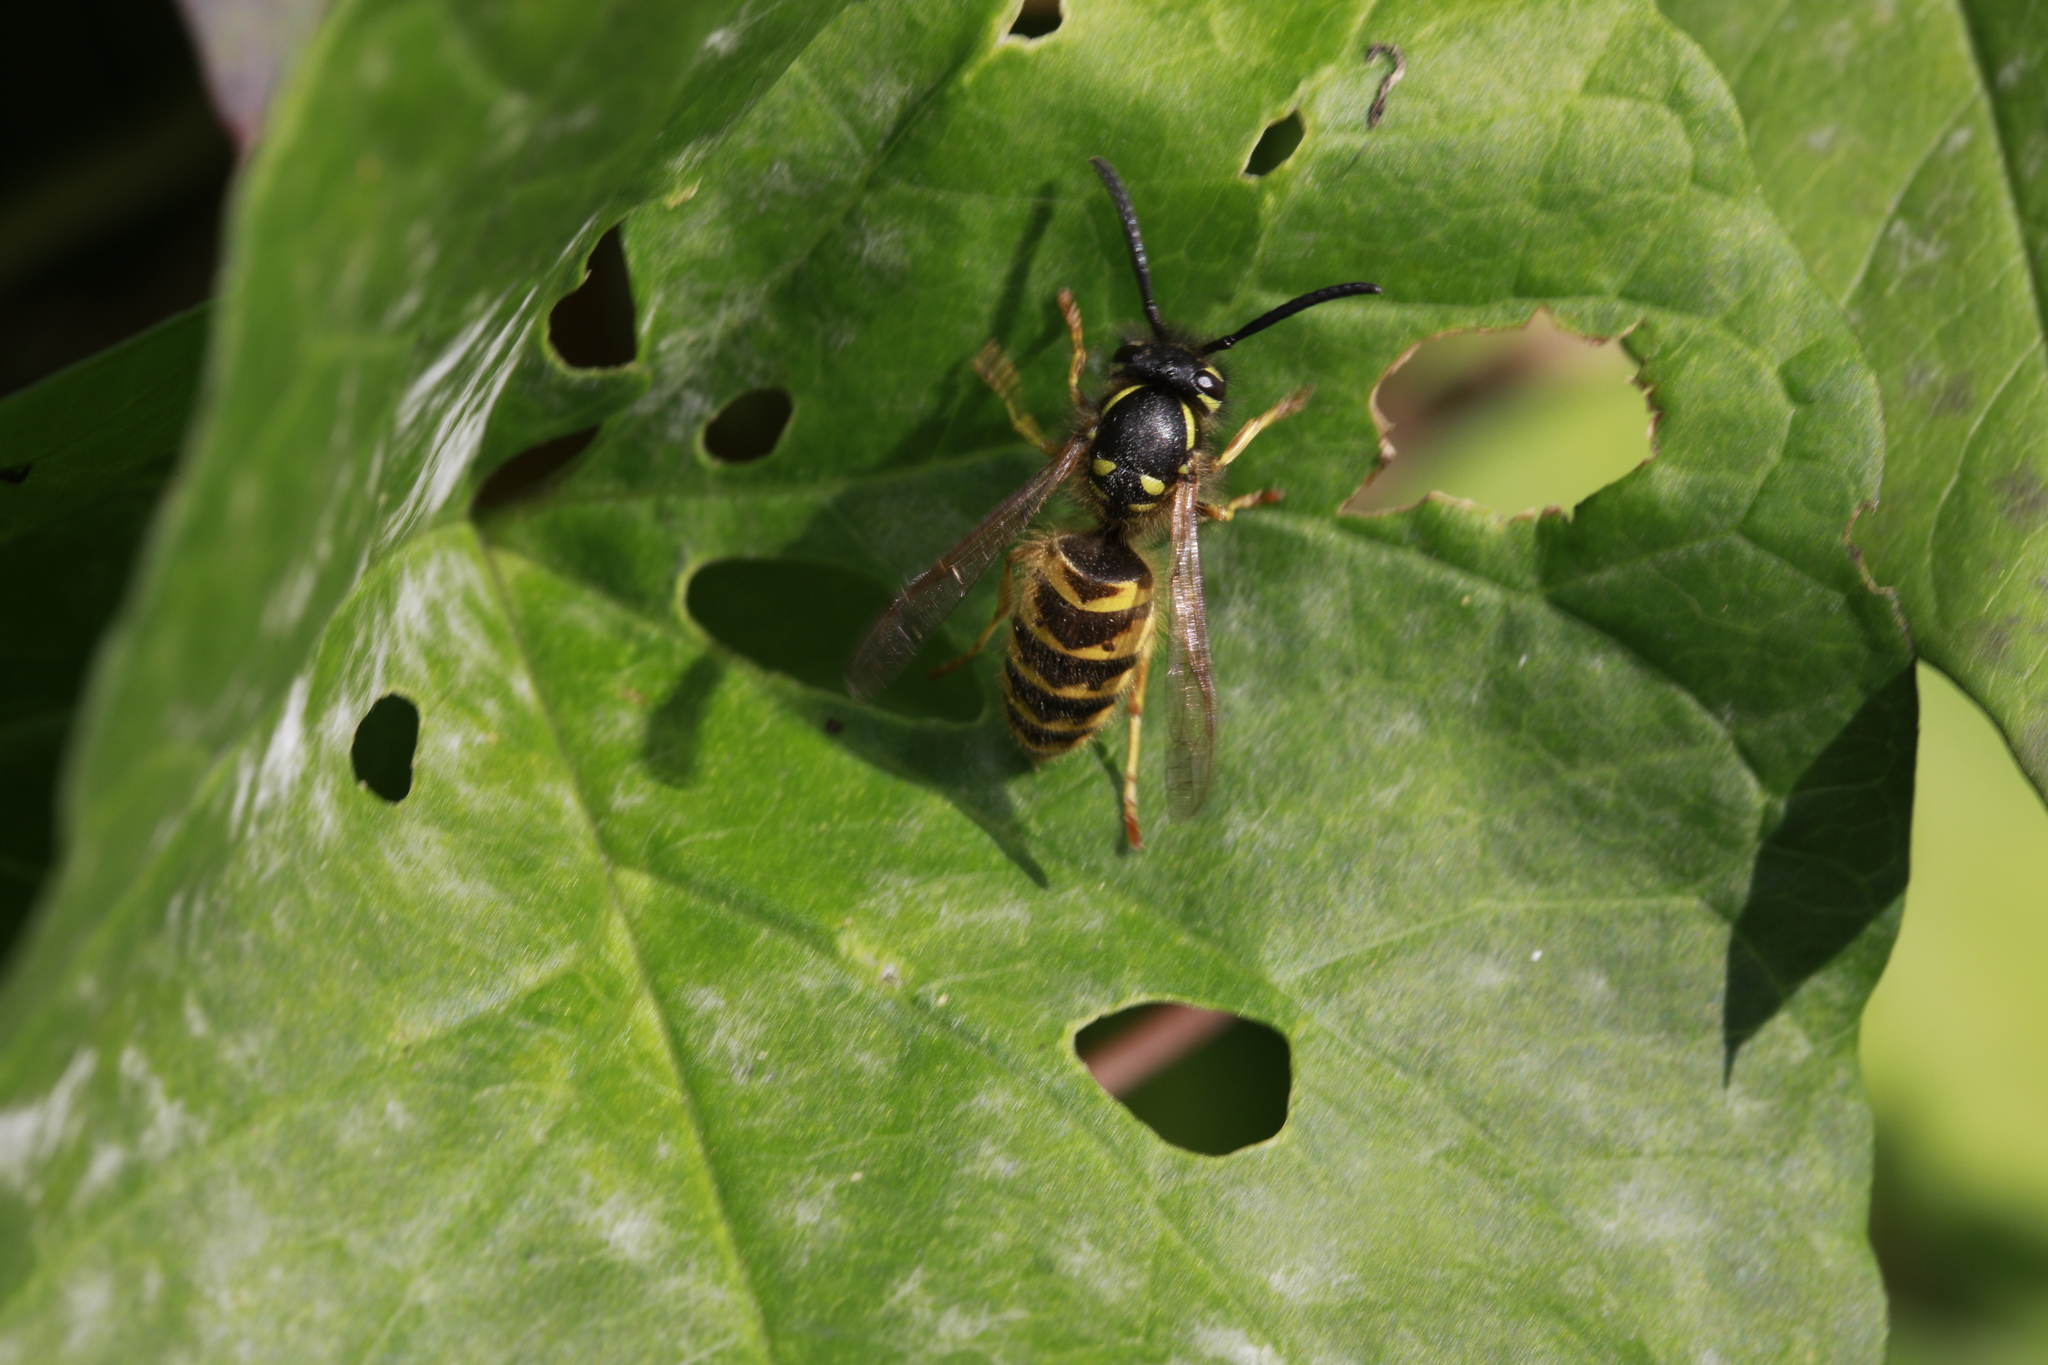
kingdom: Animalia
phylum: Arthropoda
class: Insecta
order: Hymenoptera
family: Vespidae
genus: Vespula
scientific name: Vespula vulgaris
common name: Common wasp
